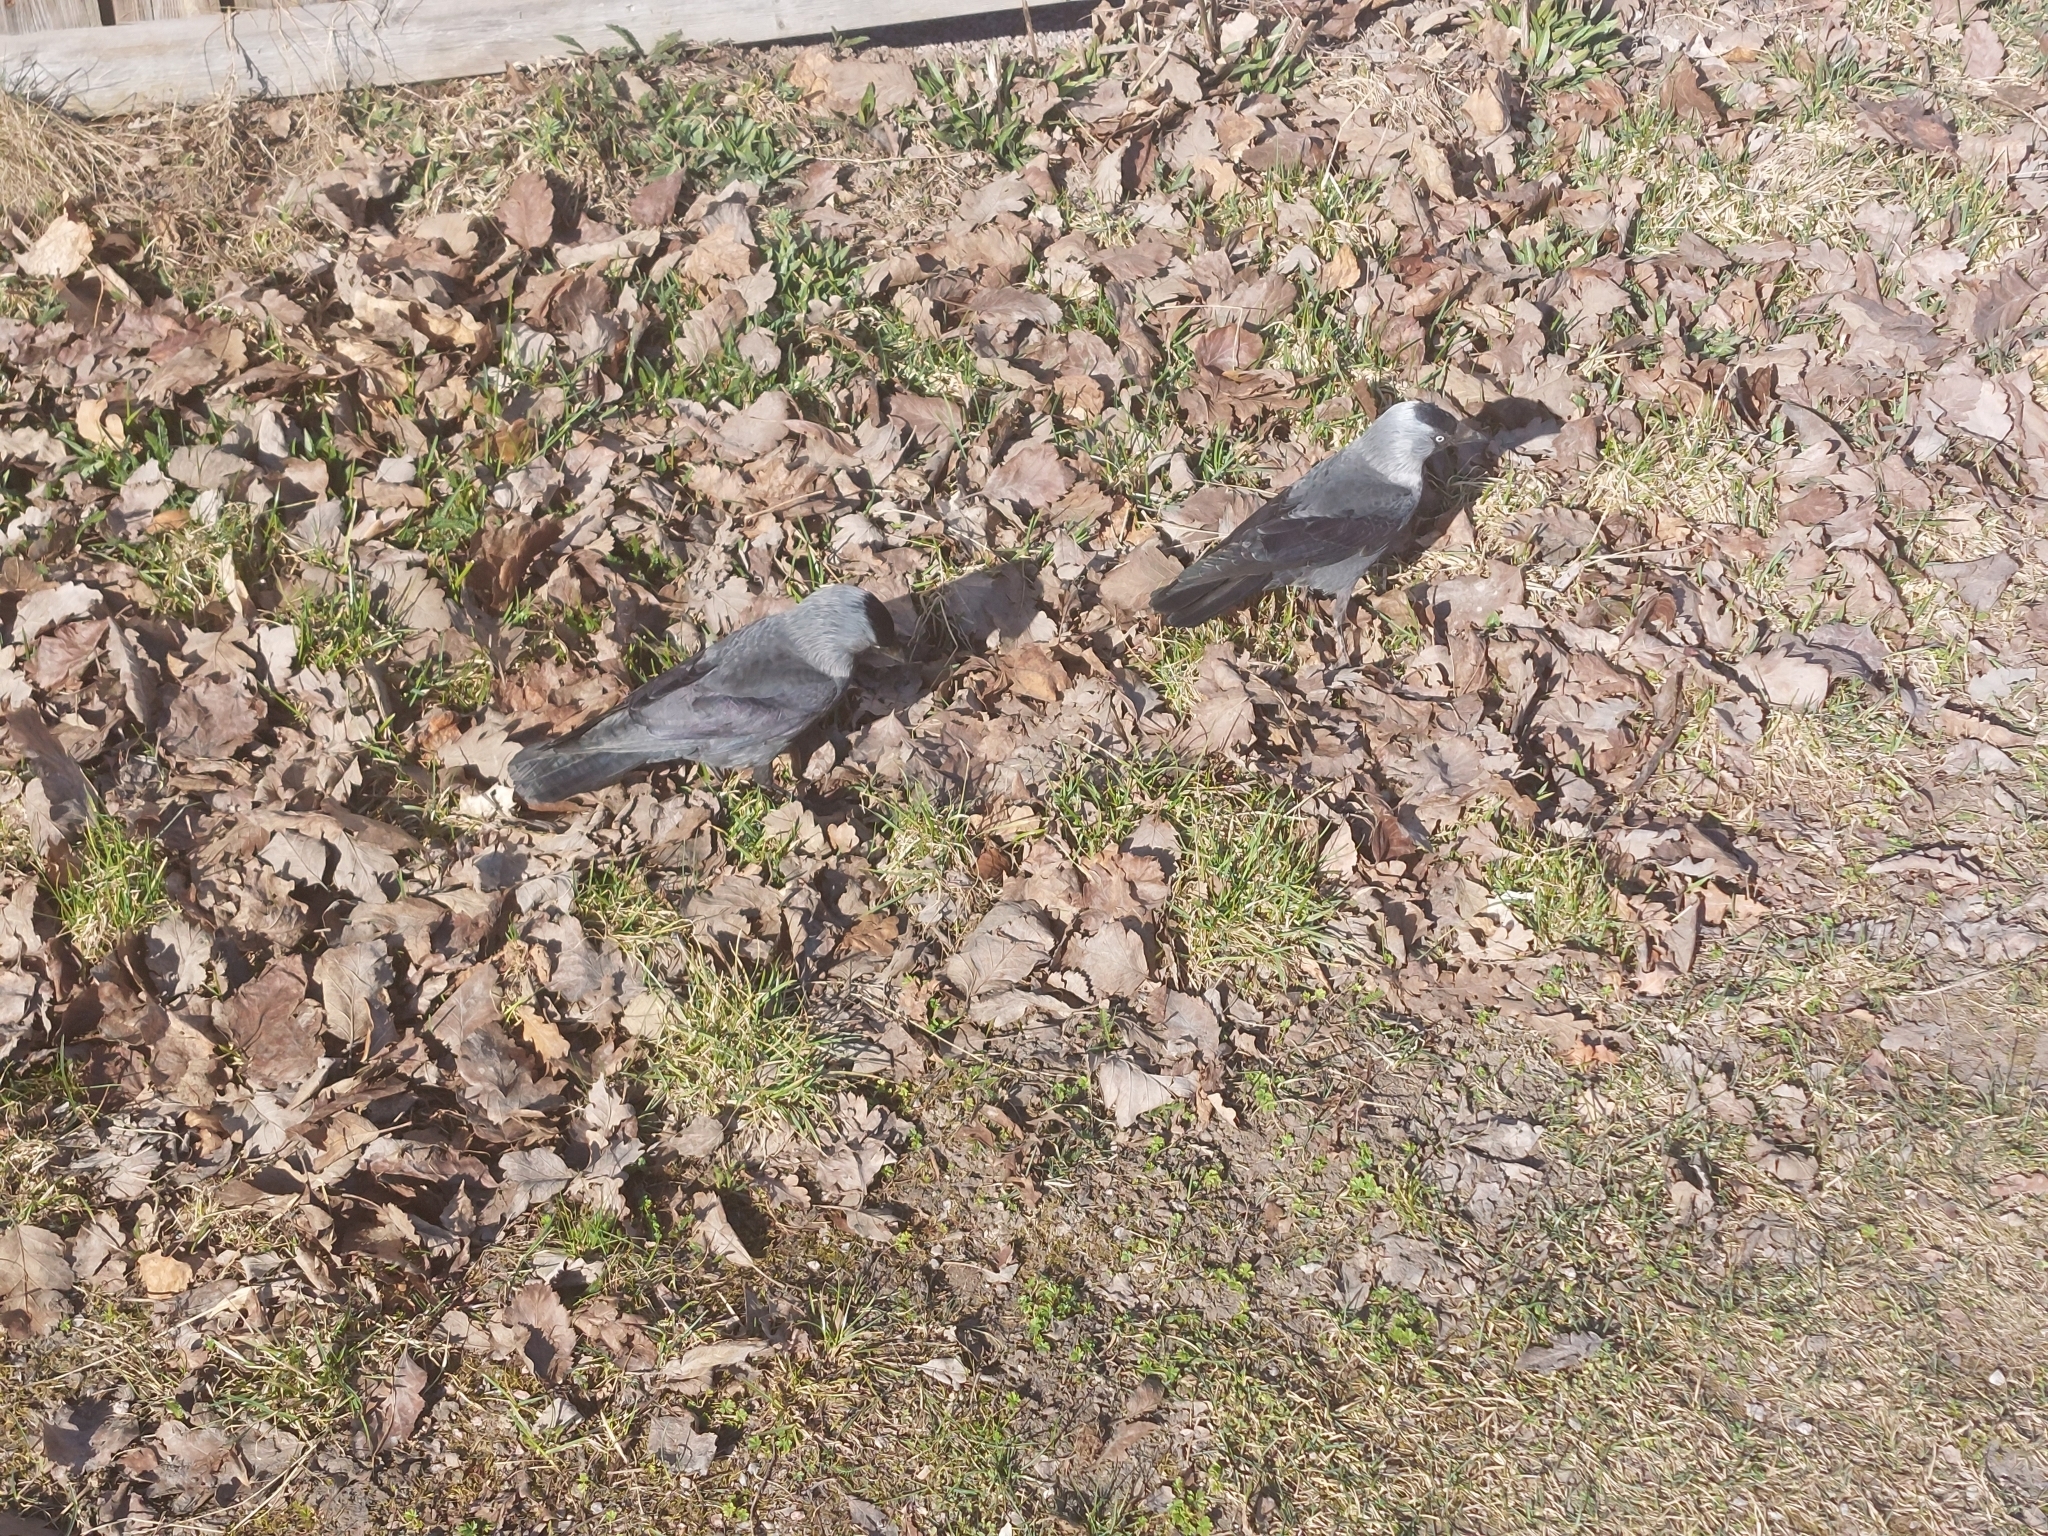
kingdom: Animalia
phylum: Chordata
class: Aves
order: Passeriformes
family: Corvidae
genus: Coloeus
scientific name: Coloeus monedula
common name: Western jackdaw
